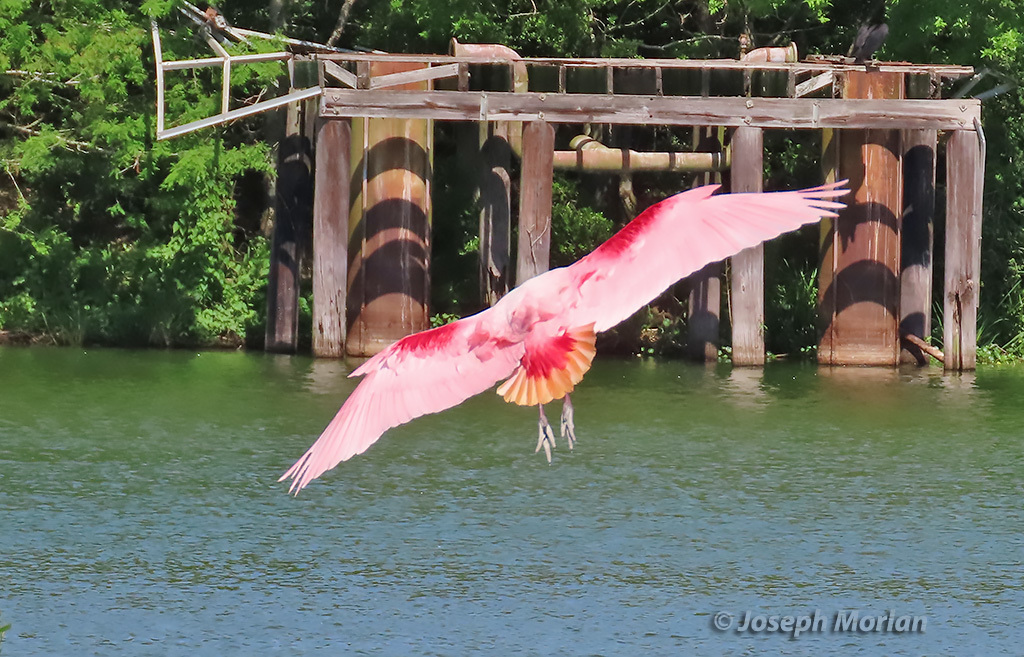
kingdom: Animalia
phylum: Chordata
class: Aves
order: Pelecaniformes
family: Threskiornithidae
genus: Platalea
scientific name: Platalea ajaja
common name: Roseate spoonbill
